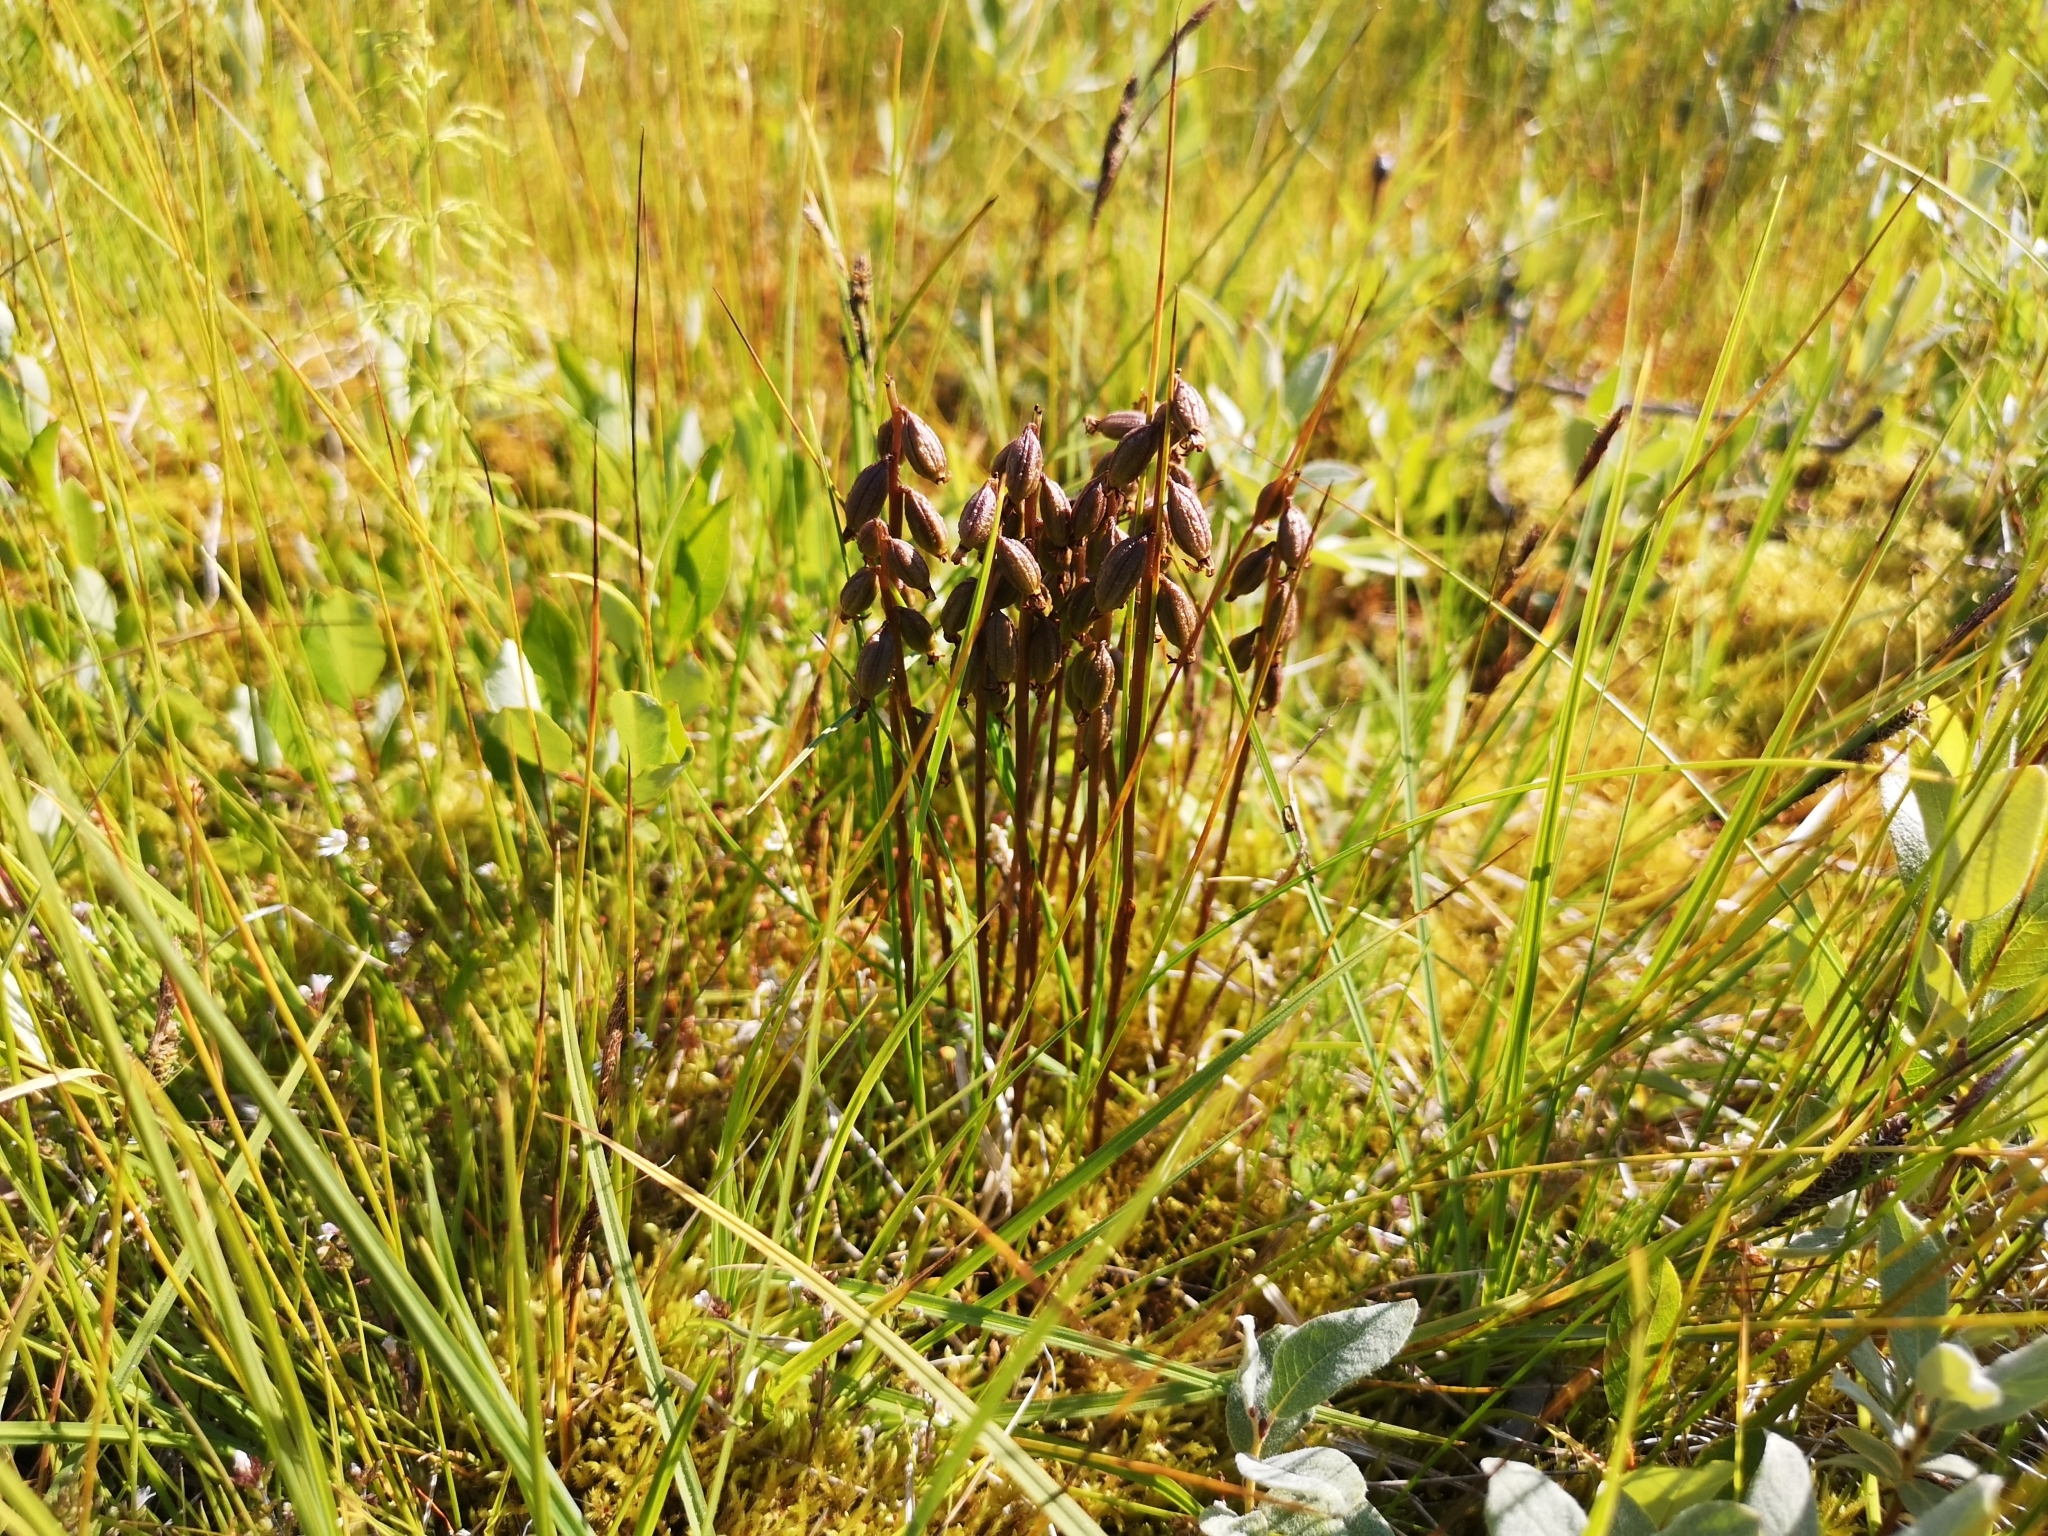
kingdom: Plantae
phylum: Tracheophyta
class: Liliopsida
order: Asparagales
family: Orchidaceae
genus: Corallorhiza
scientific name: Corallorhiza trifida
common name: Yellow coralroot
